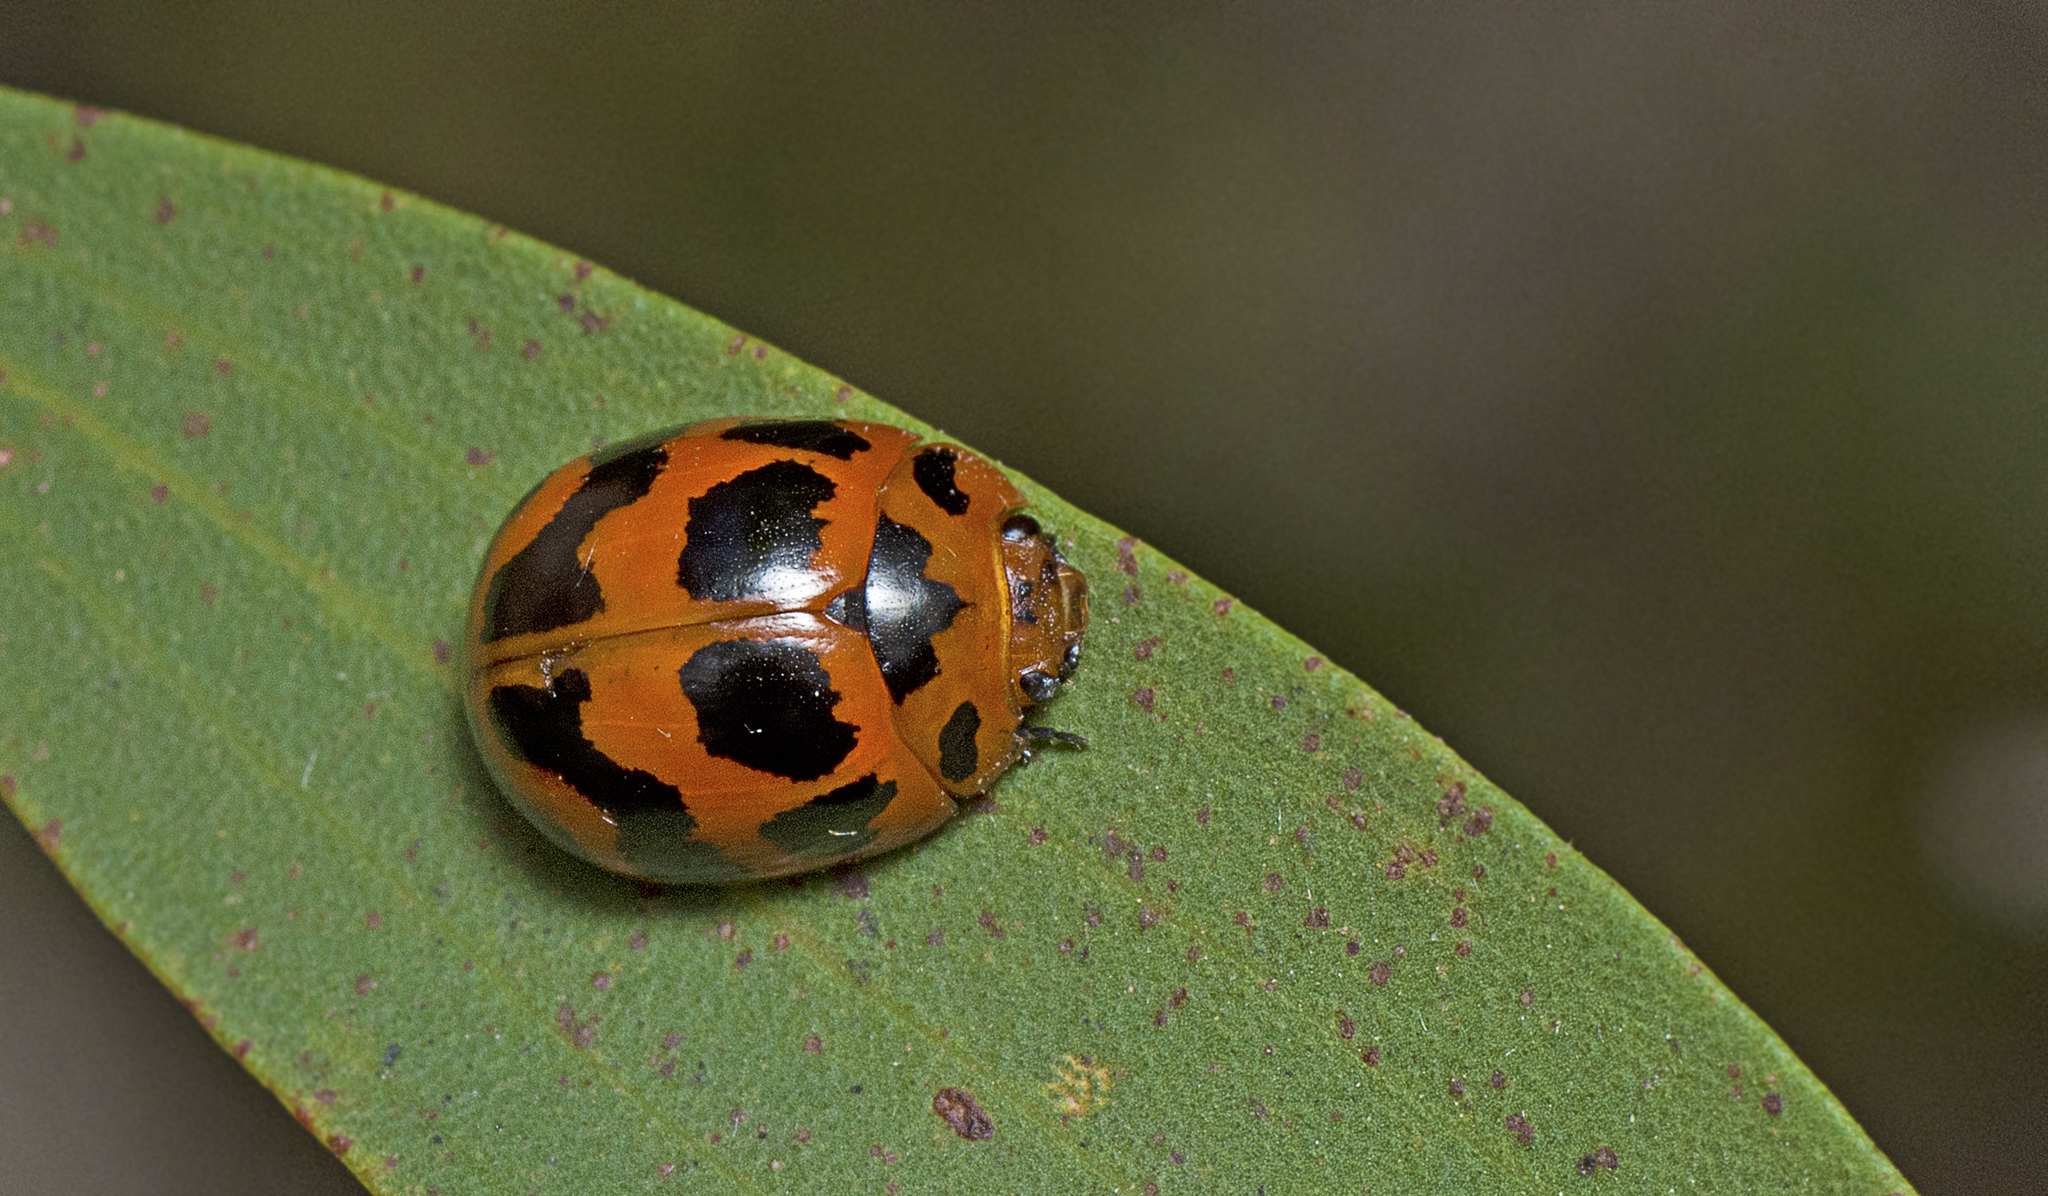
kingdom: Animalia
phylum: Arthropoda
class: Insecta
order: Coleoptera
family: Chrysomelidae
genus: Paropsisterna
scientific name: Paropsisterna
